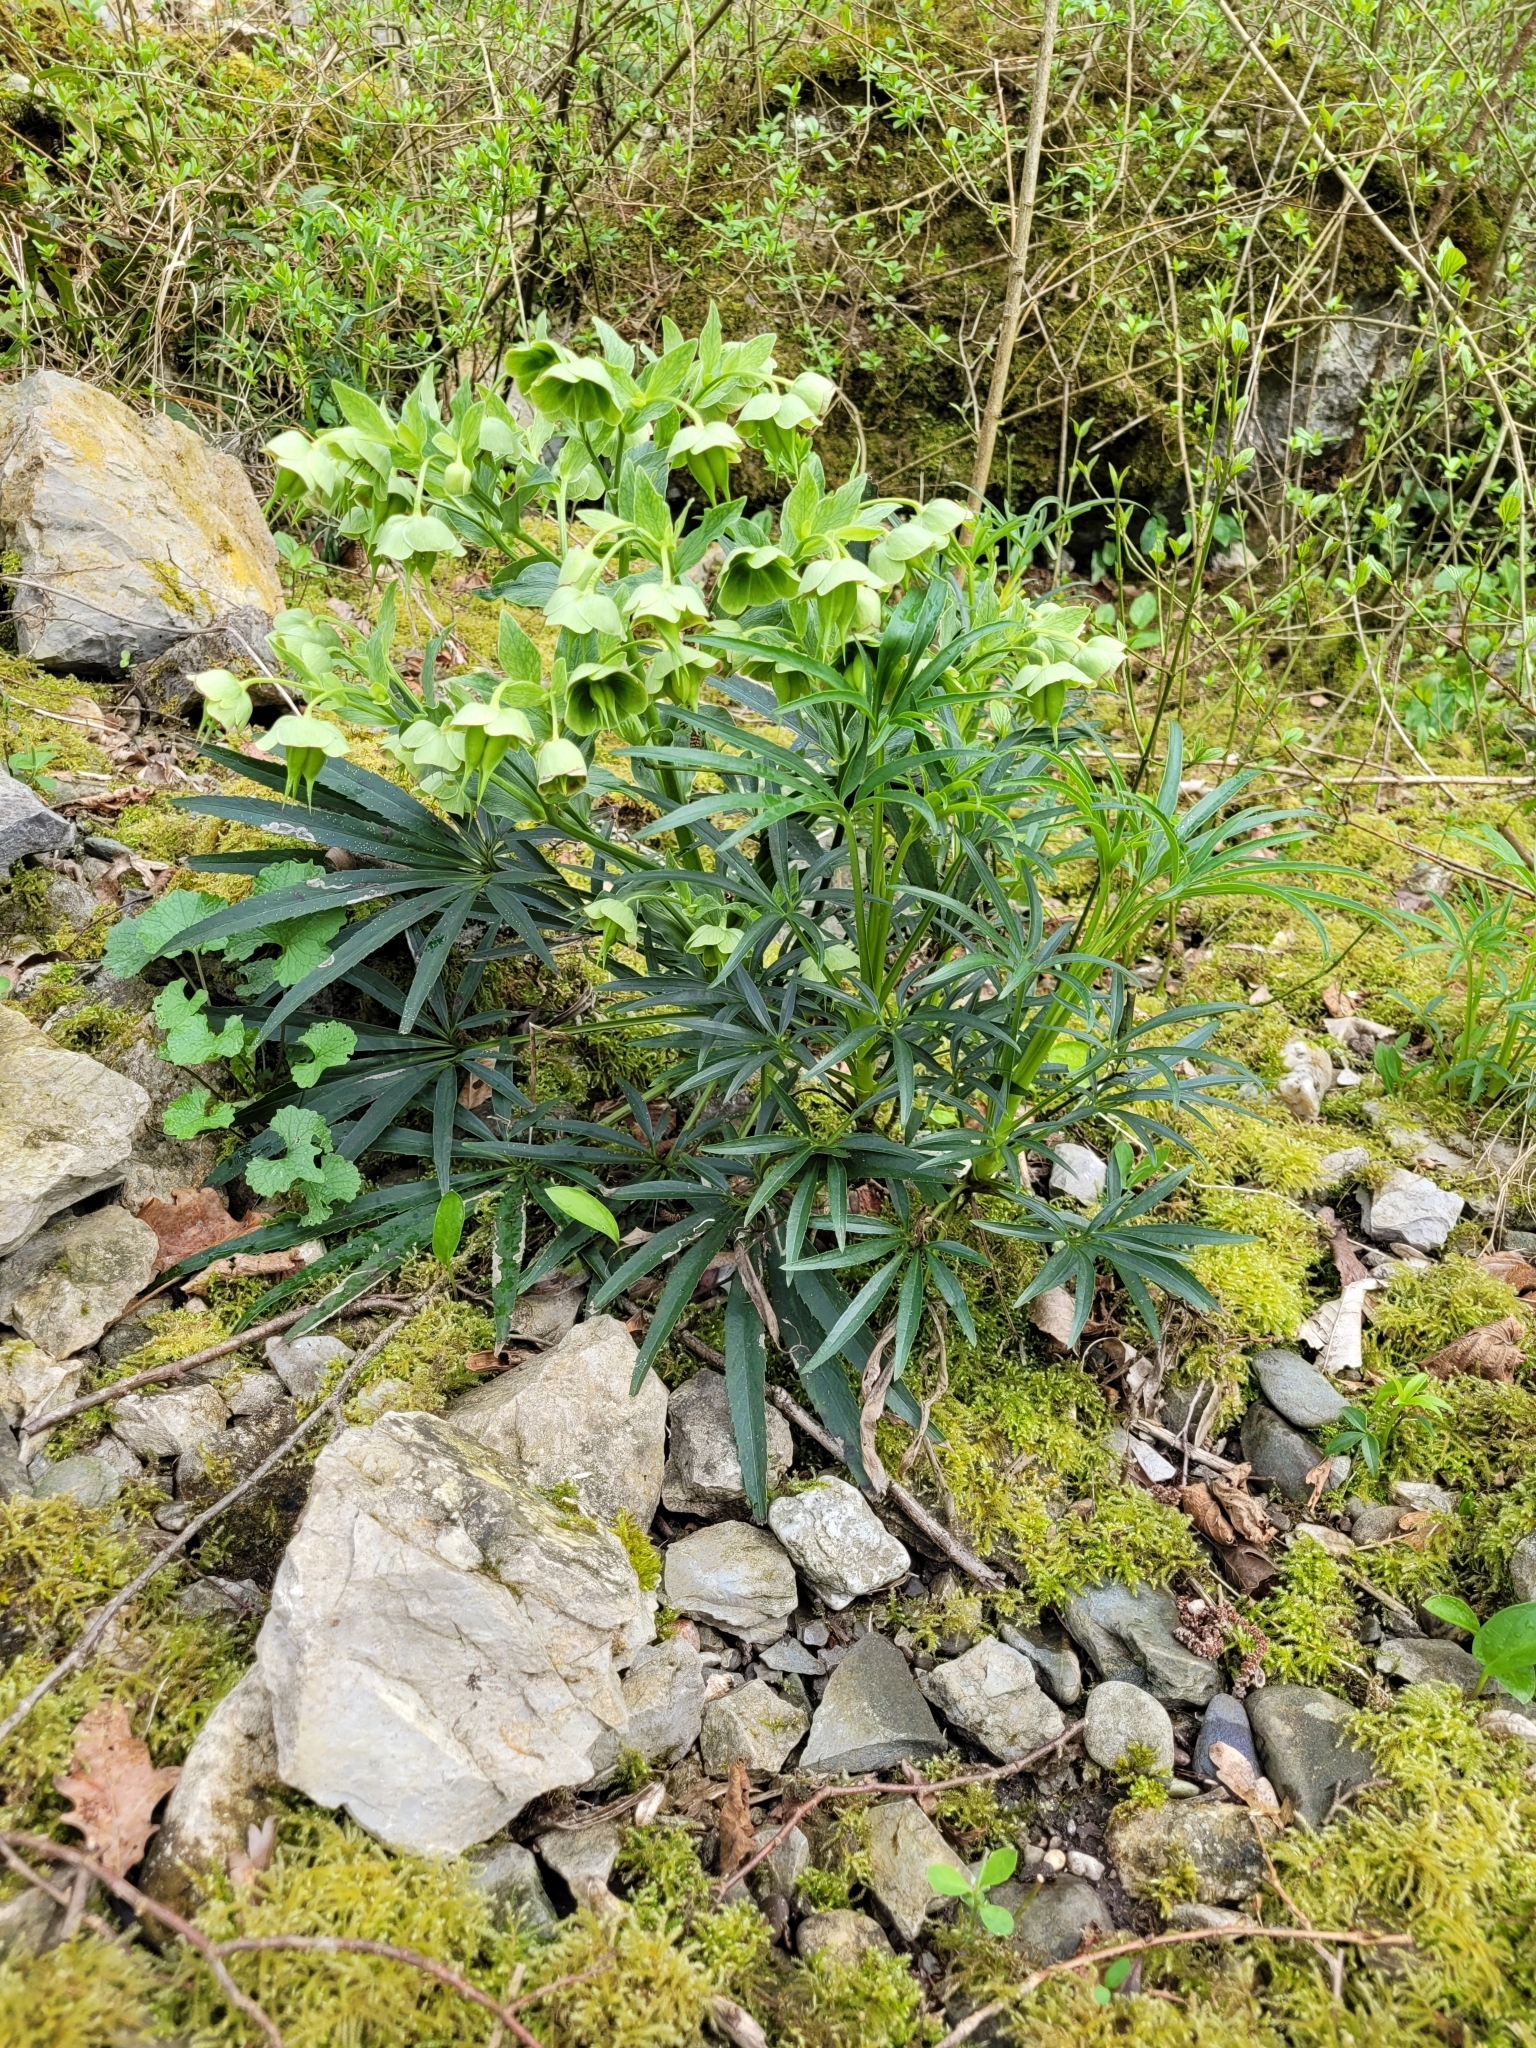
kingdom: Plantae
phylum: Tracheophyta
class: Magnoliopsida
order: Ranunculales
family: Ranunculaceae
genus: Helleborus
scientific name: Helleborus foetidus
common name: Stinking hellebore
